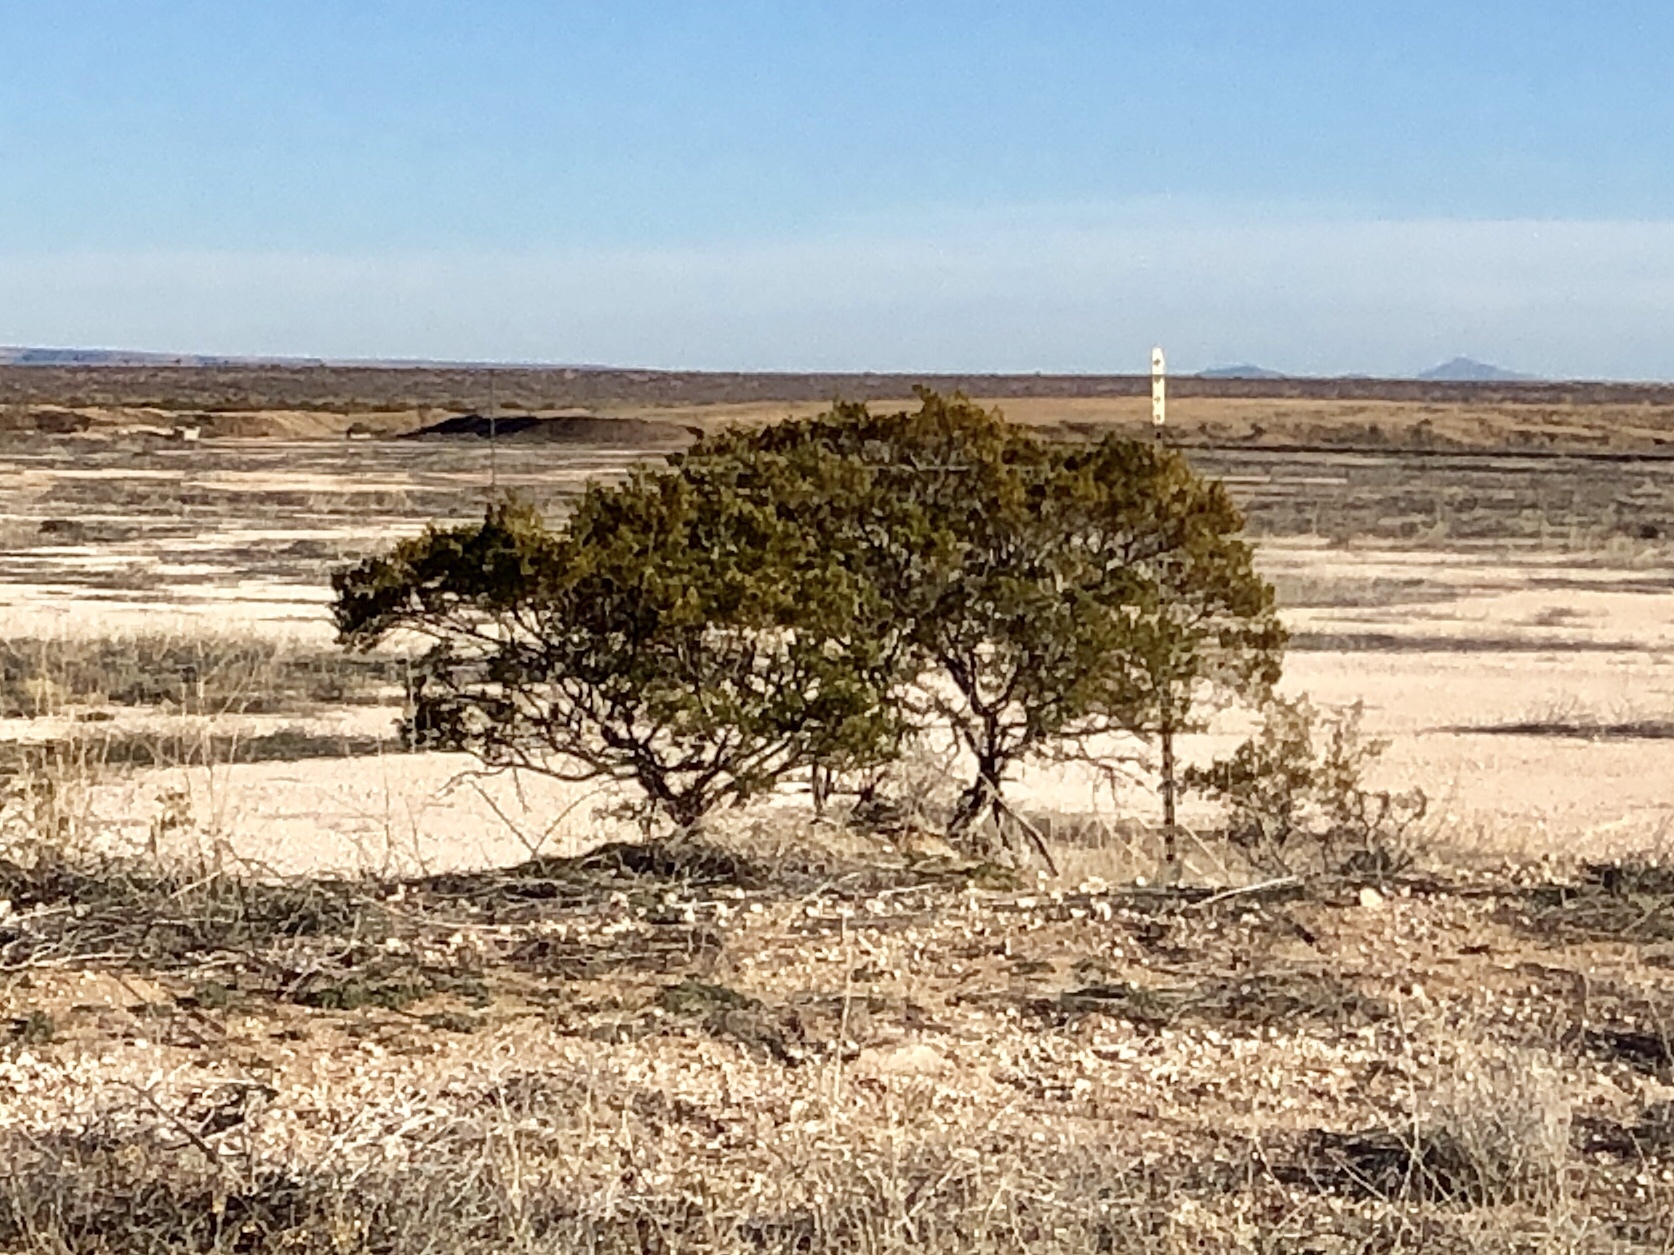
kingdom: Plantae
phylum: Tracheophyta
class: Magnoliopsida
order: Zygophyllales
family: Zygophyllaceae
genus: Larrea
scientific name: Larrea tridentata
